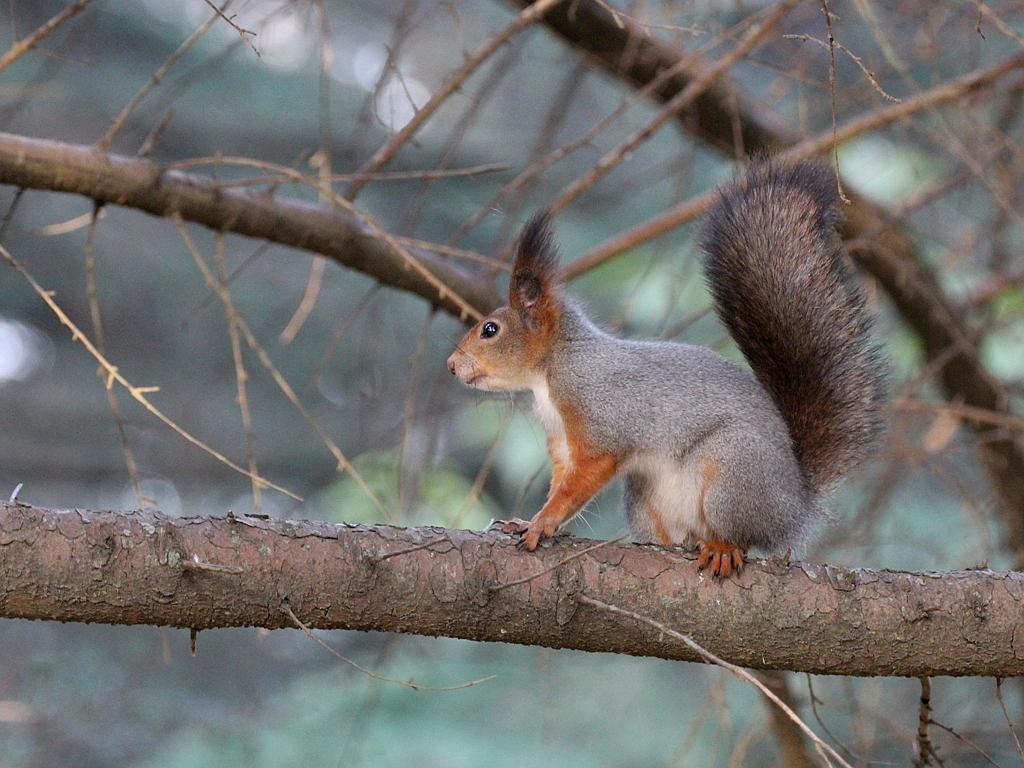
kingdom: Animalia
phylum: Chordata
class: Mammalia
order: Rodentia
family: Sciuridae
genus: Sciurus
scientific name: Sciurus vulgaris
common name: Eurasian red squirrel
